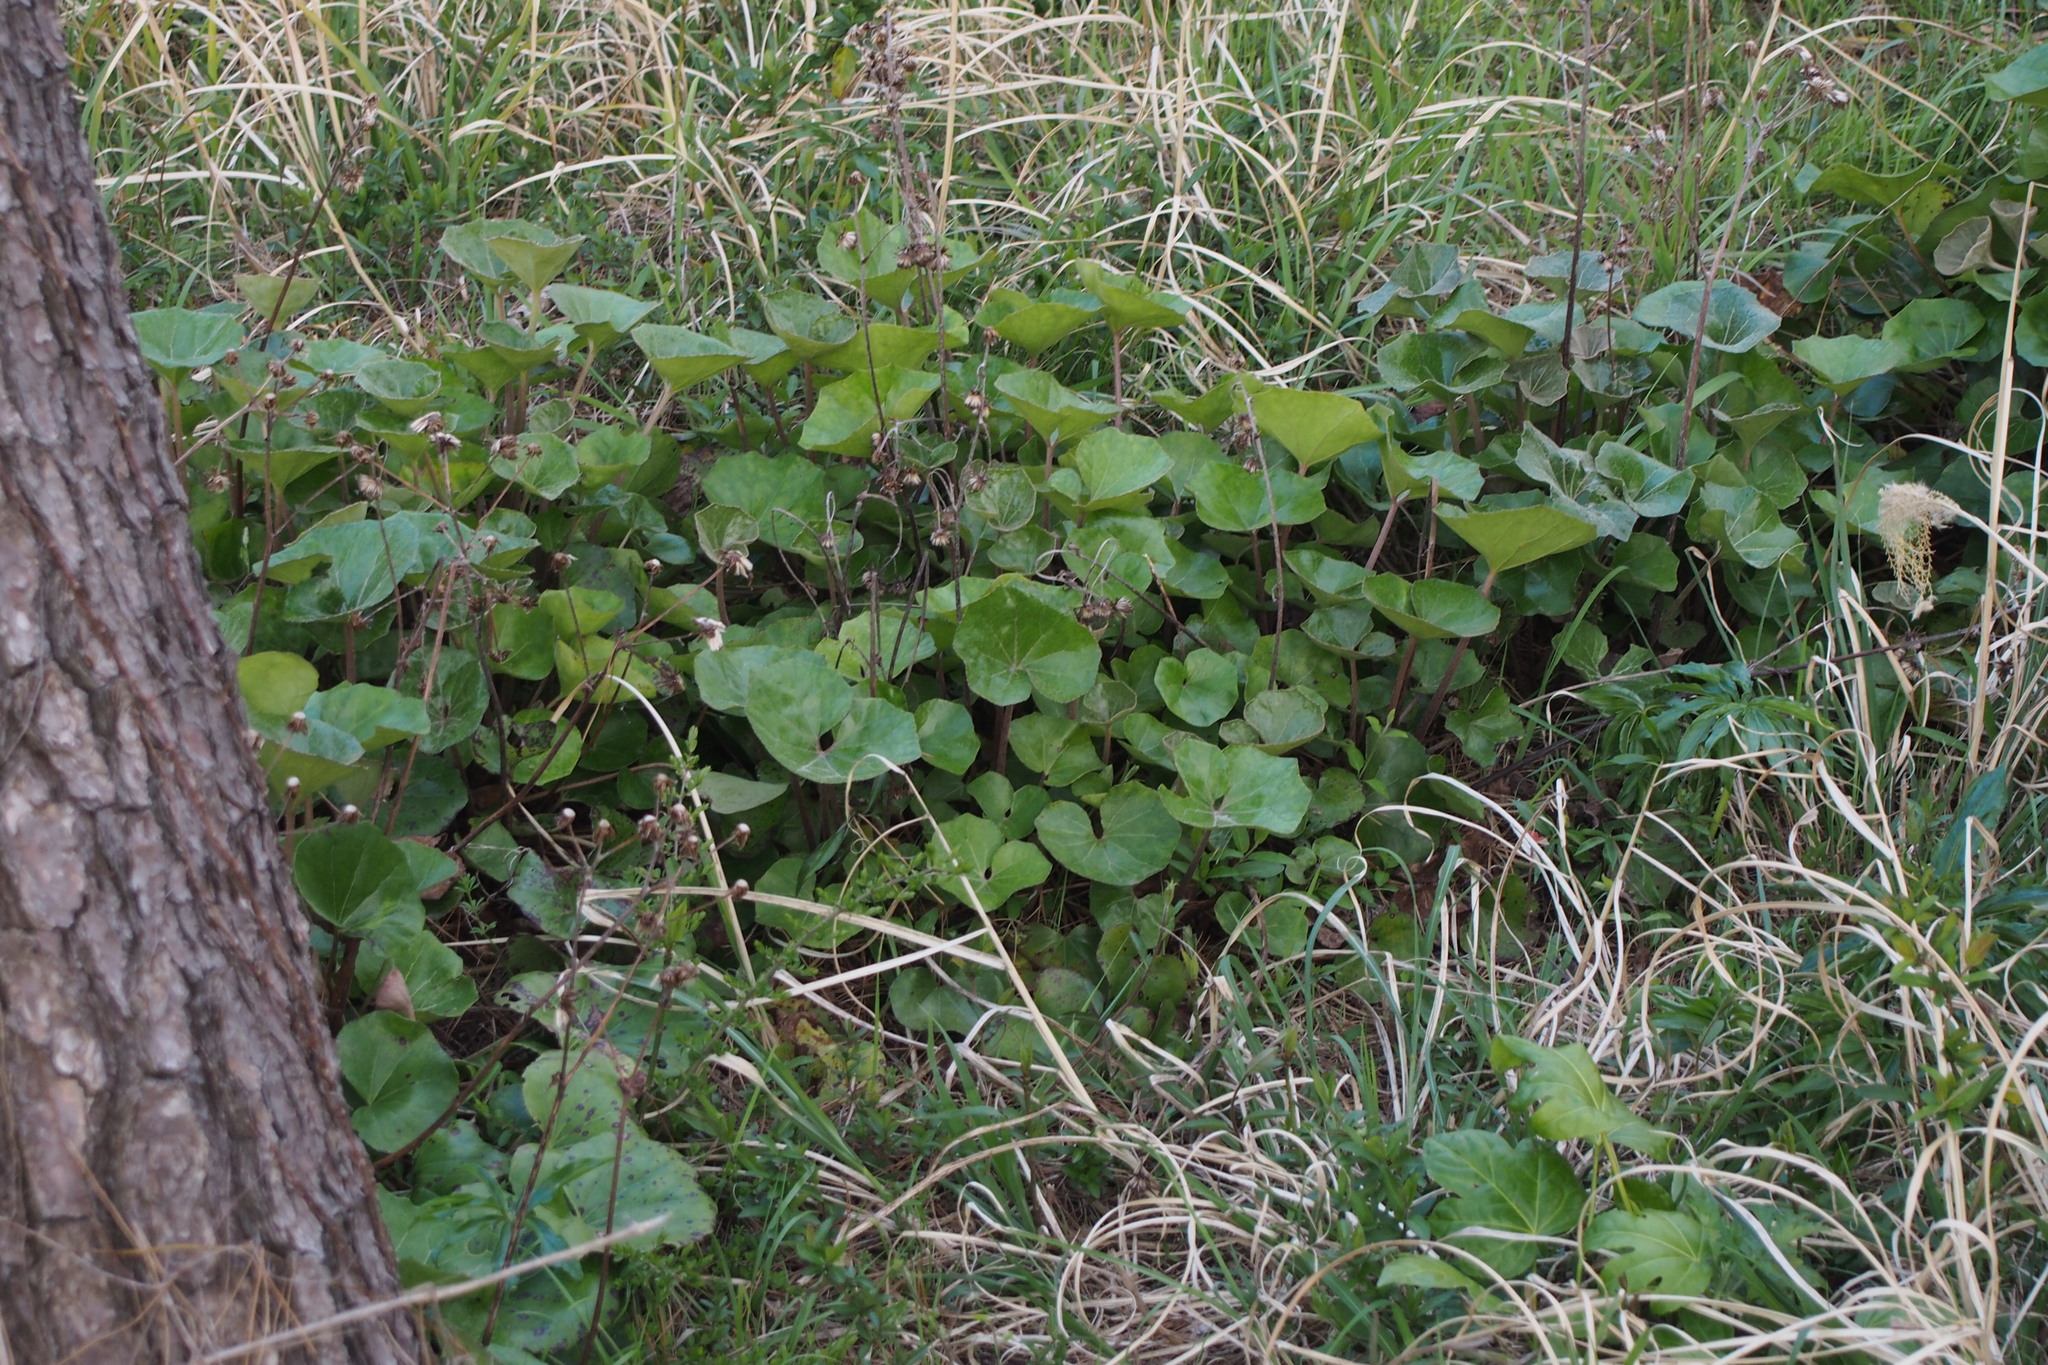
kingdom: Plantae
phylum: Tracheophyta
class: Magnoliopsida
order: Asterales
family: Asteraceae
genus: Farfugium
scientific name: Farfugium japonicum
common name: Leopardplant
